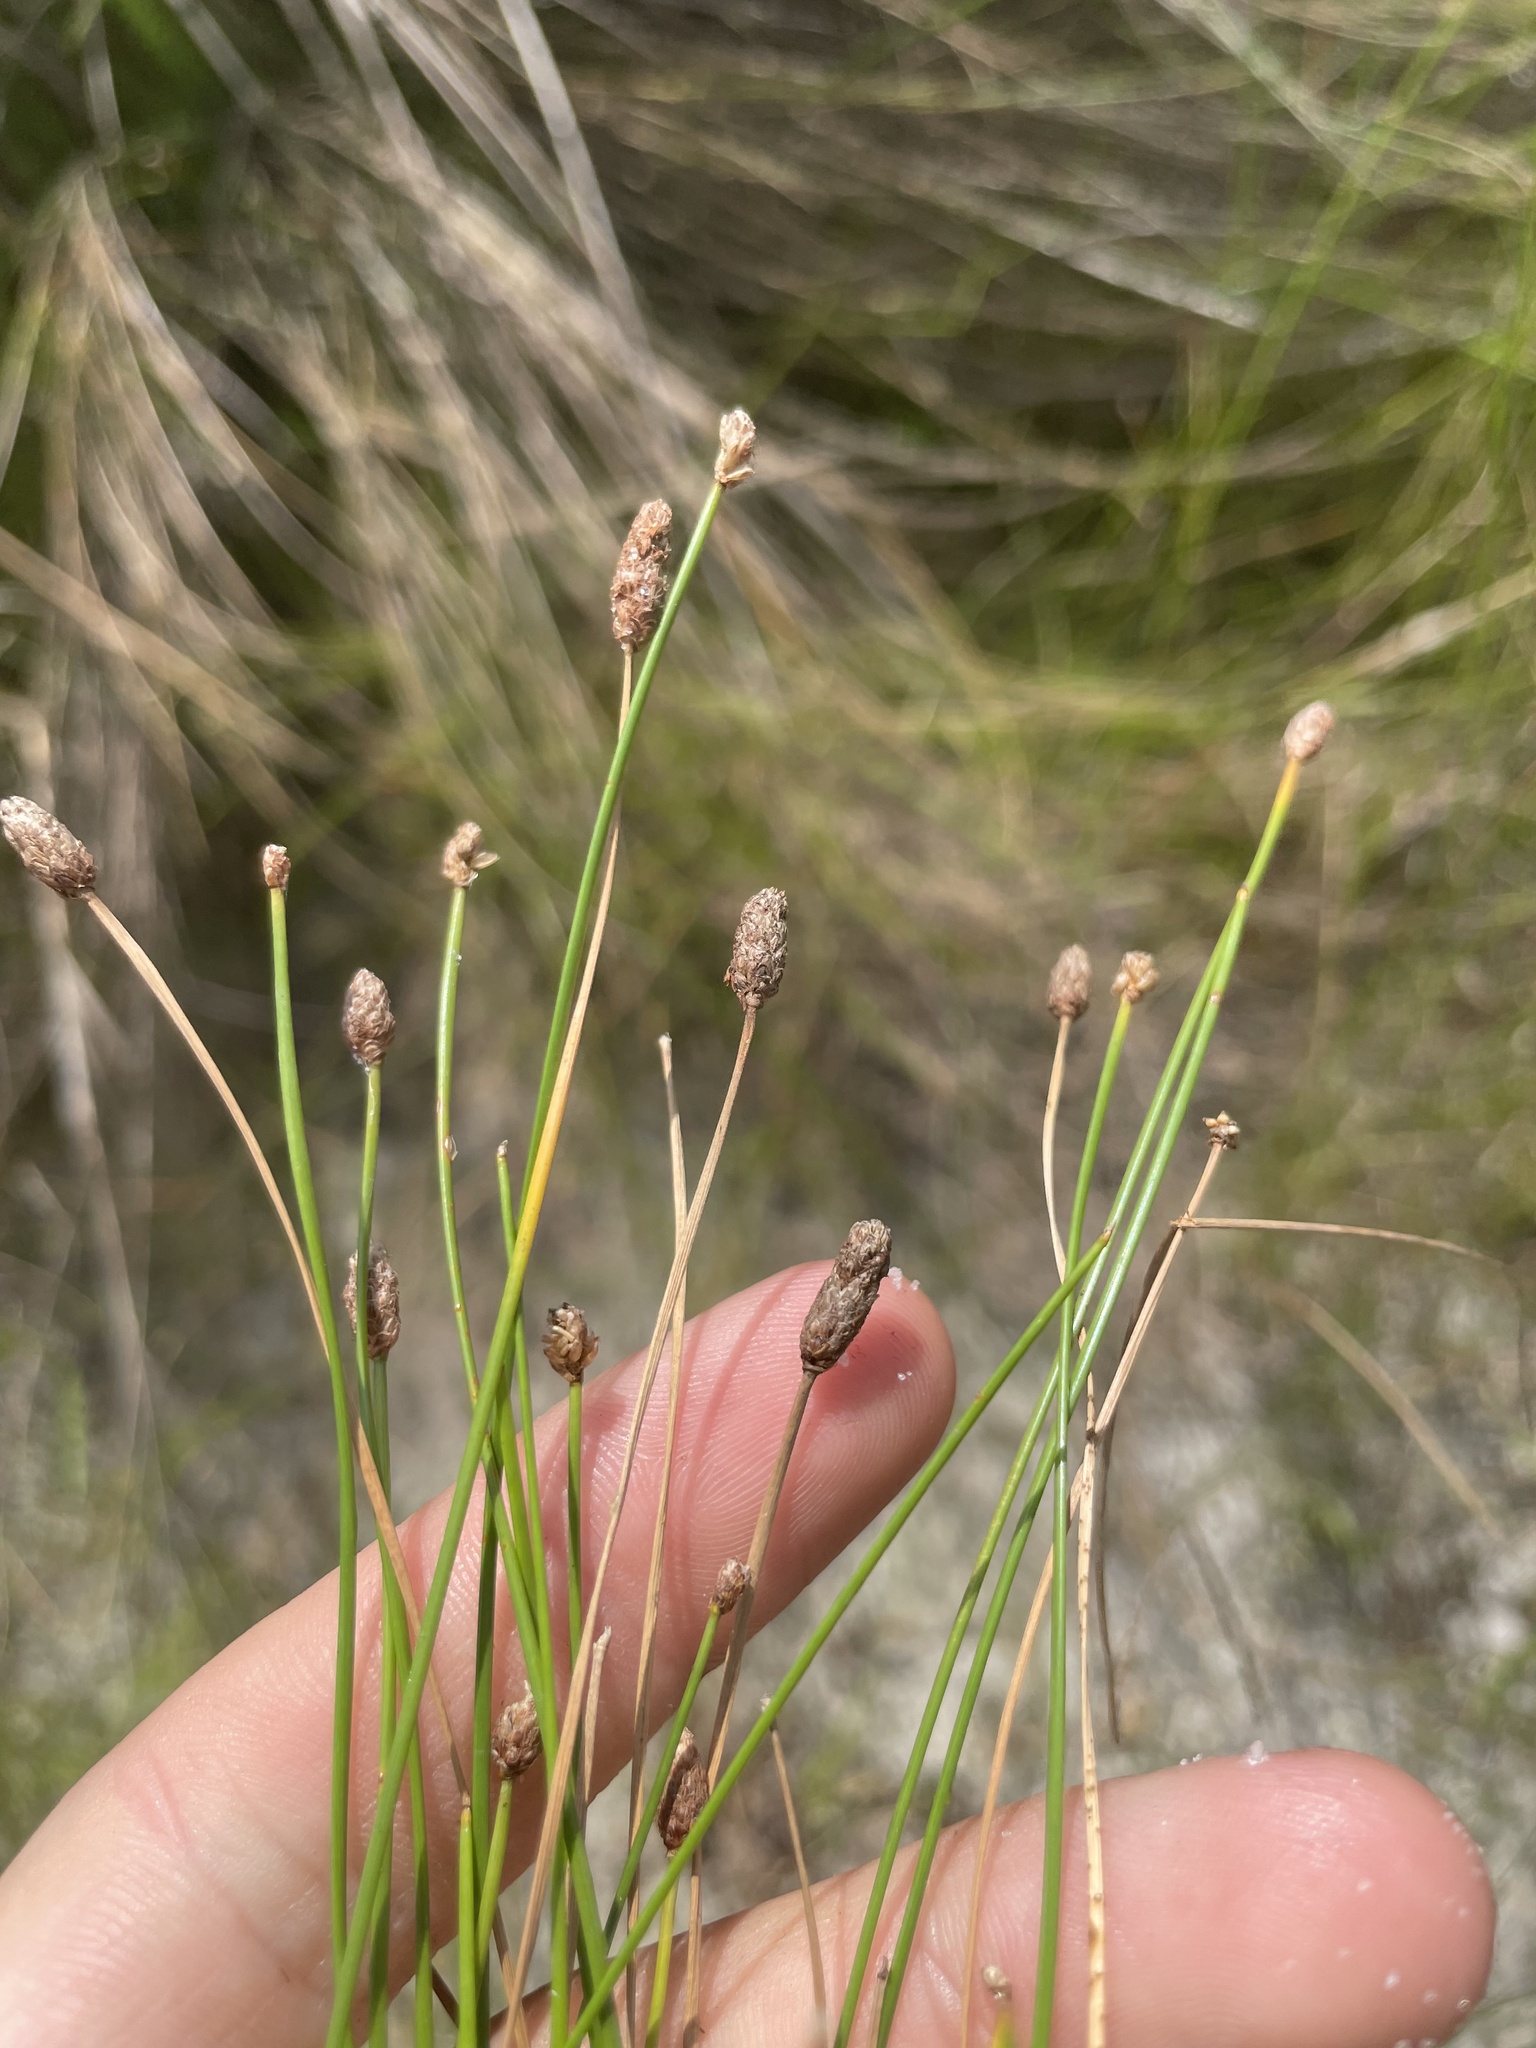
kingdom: Plantae
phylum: Tracheophyta
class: Liliopsida
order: Poales
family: Cyperaceae
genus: Eleocharis
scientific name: Eleocharis albida
